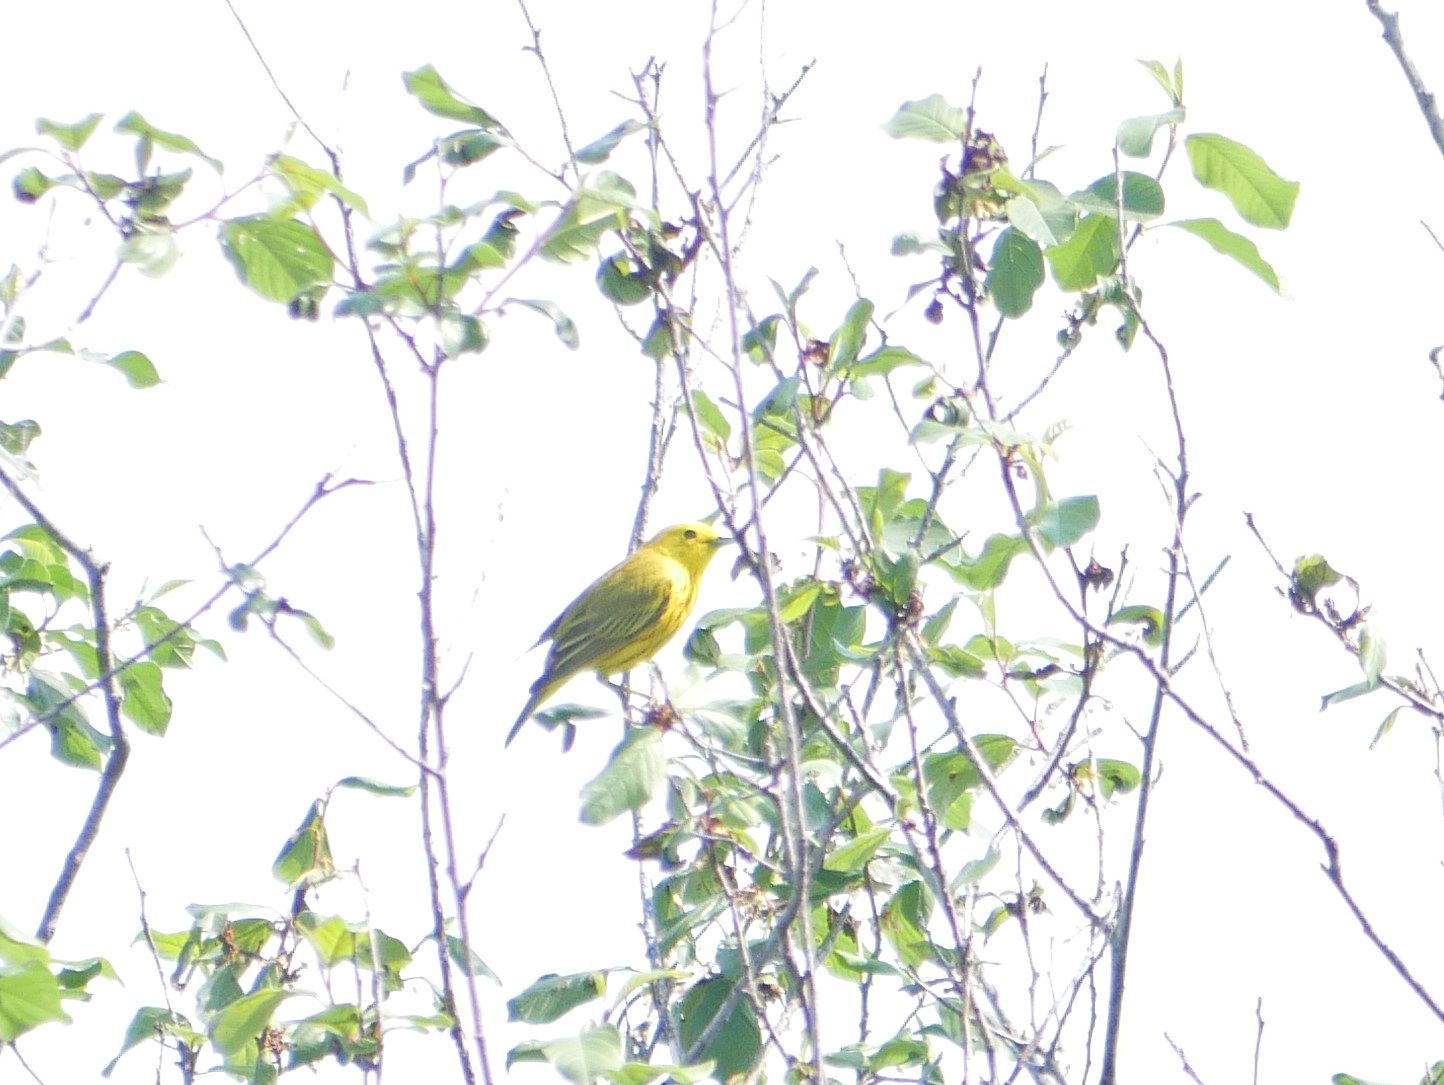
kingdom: Animalia
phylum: Chordata
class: Aves
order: Passeriformes
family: Parulidae
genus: Setophaga
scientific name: Setophaga petechia
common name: Yellow warbler
